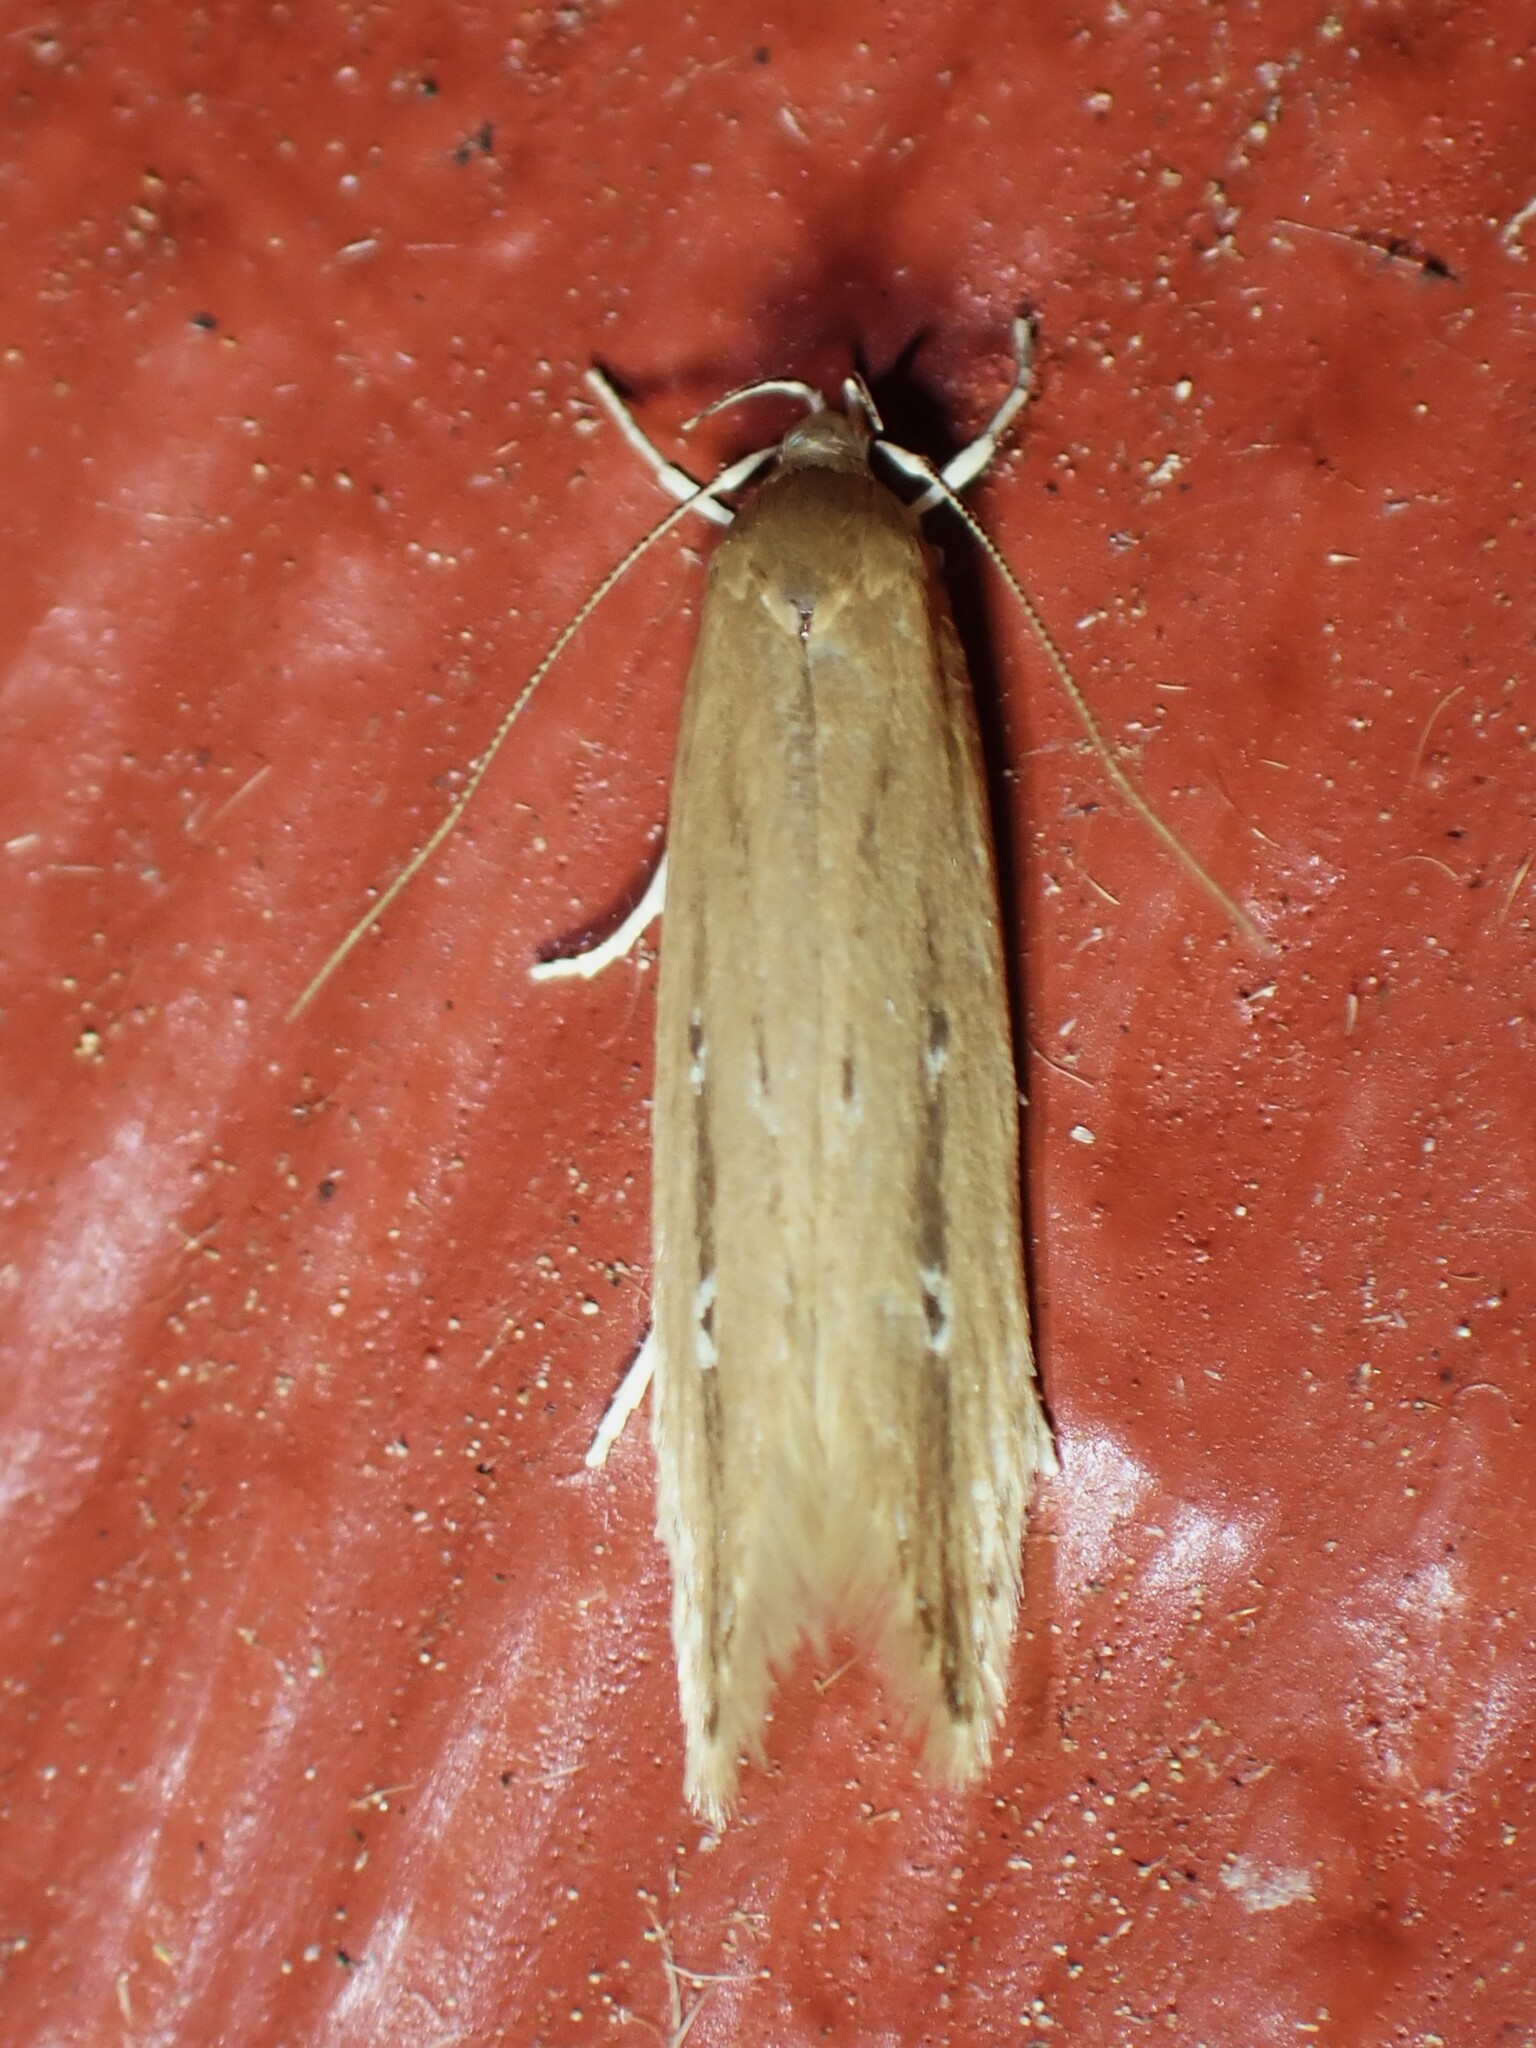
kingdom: Animalia
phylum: Arthropoda
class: Insecta
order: Lepidoptera
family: Cosmopterigidae
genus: Limnaecia
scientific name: Limnaecia phragmitella
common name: Bulrush cosmet
